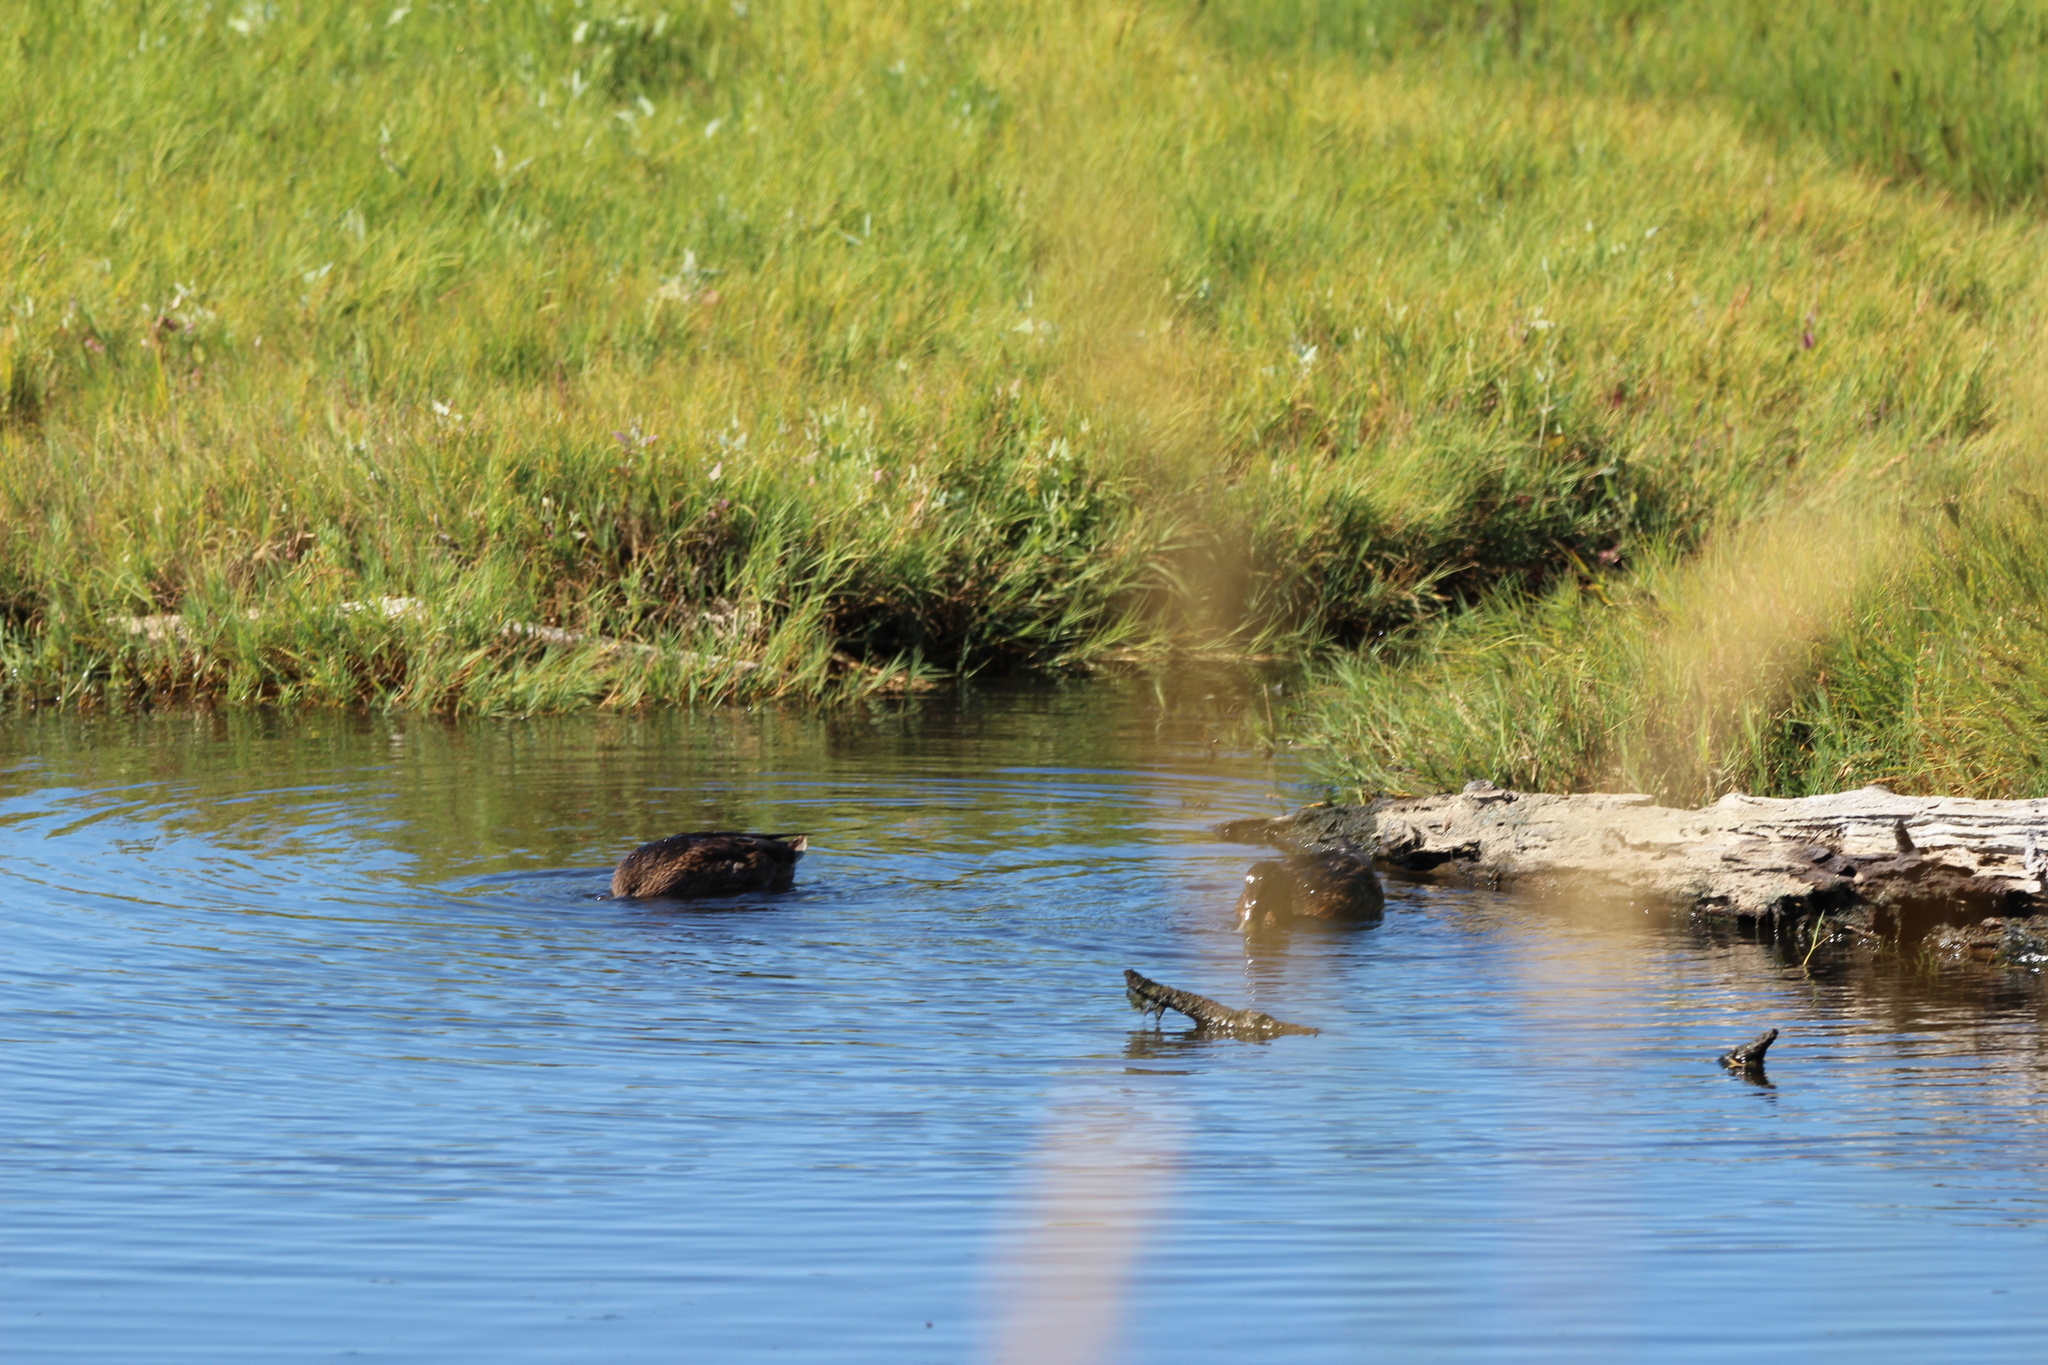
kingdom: Animalia
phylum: Chordata
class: Aves
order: Anseriformes
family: Anatidae
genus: Anas
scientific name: Anas platyrhynchos
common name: Mallard
